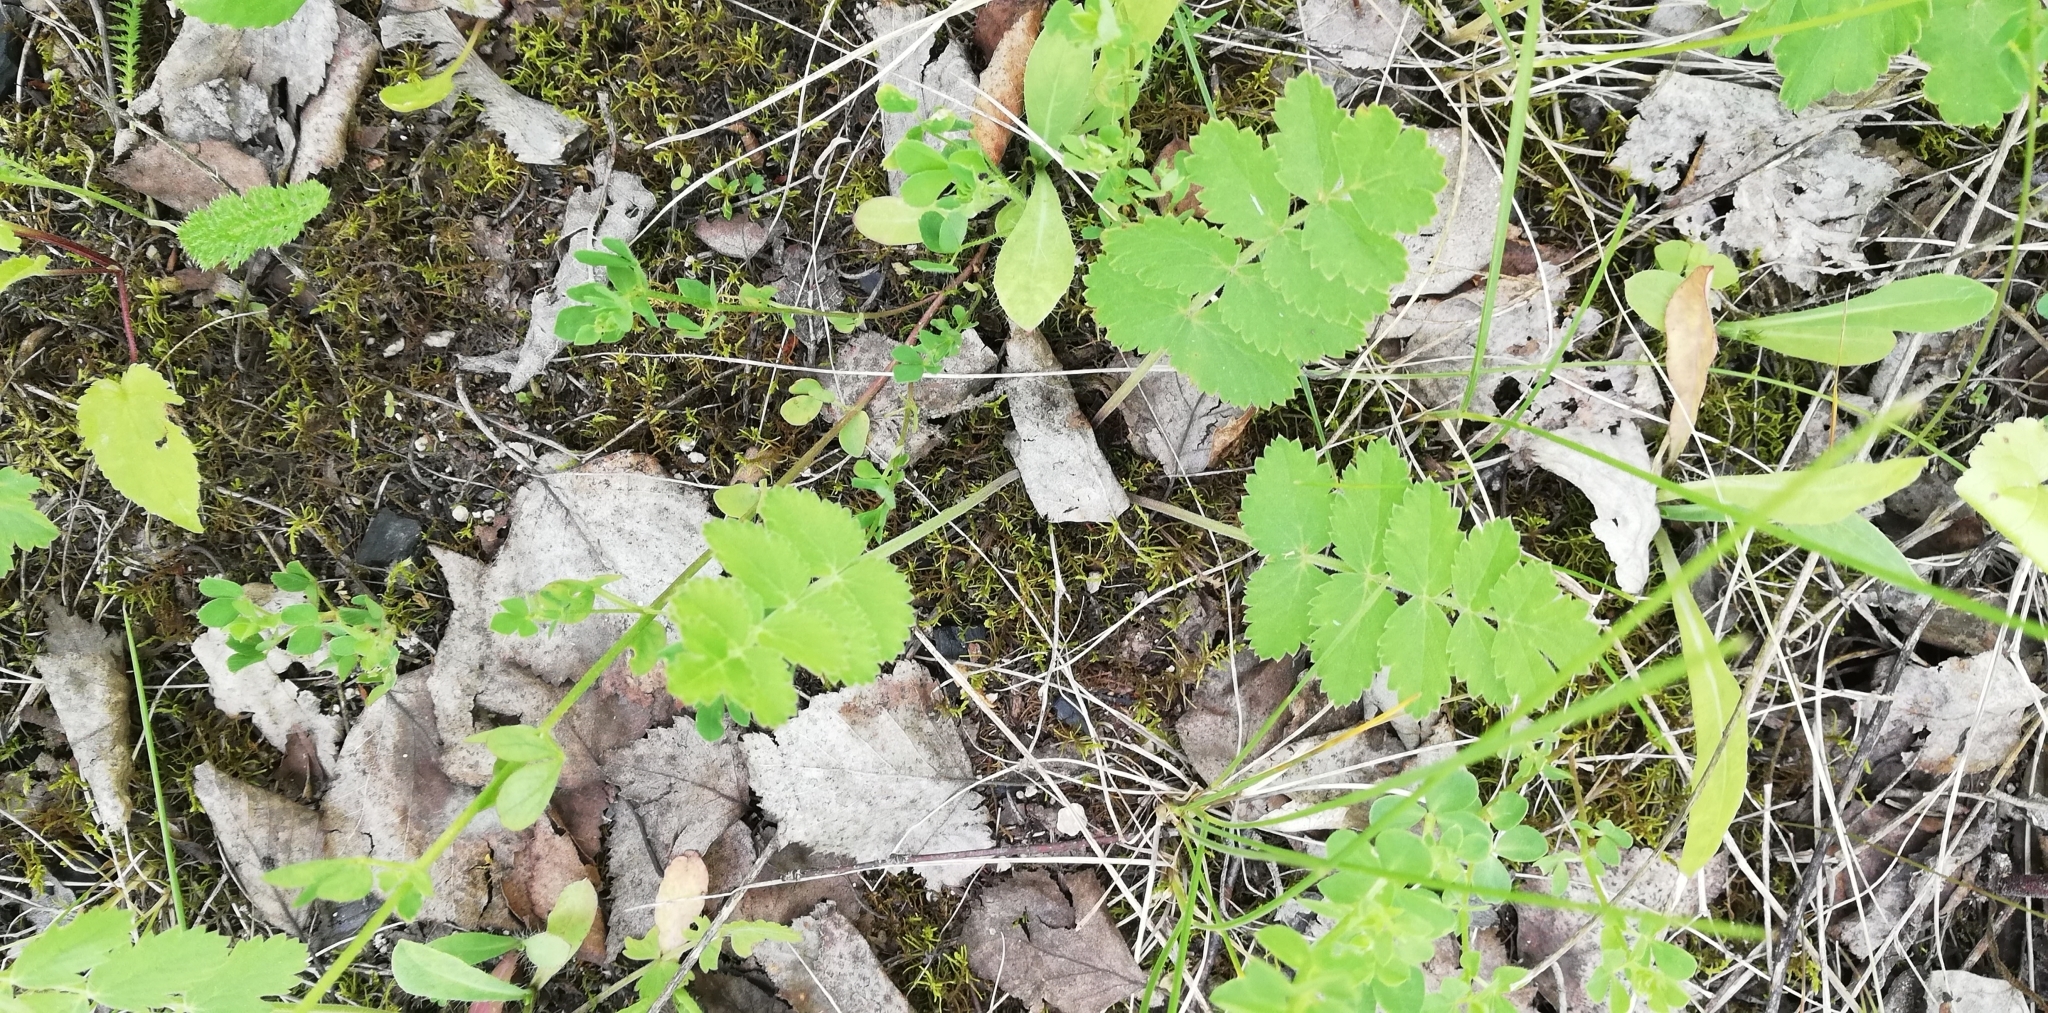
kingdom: Plantae
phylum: Tracheophyta
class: Magnoliopsida
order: Apiales
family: Apiaceae
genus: Pimpinella
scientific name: Pimpinella saxifraga
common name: Burnet-saxifrage
